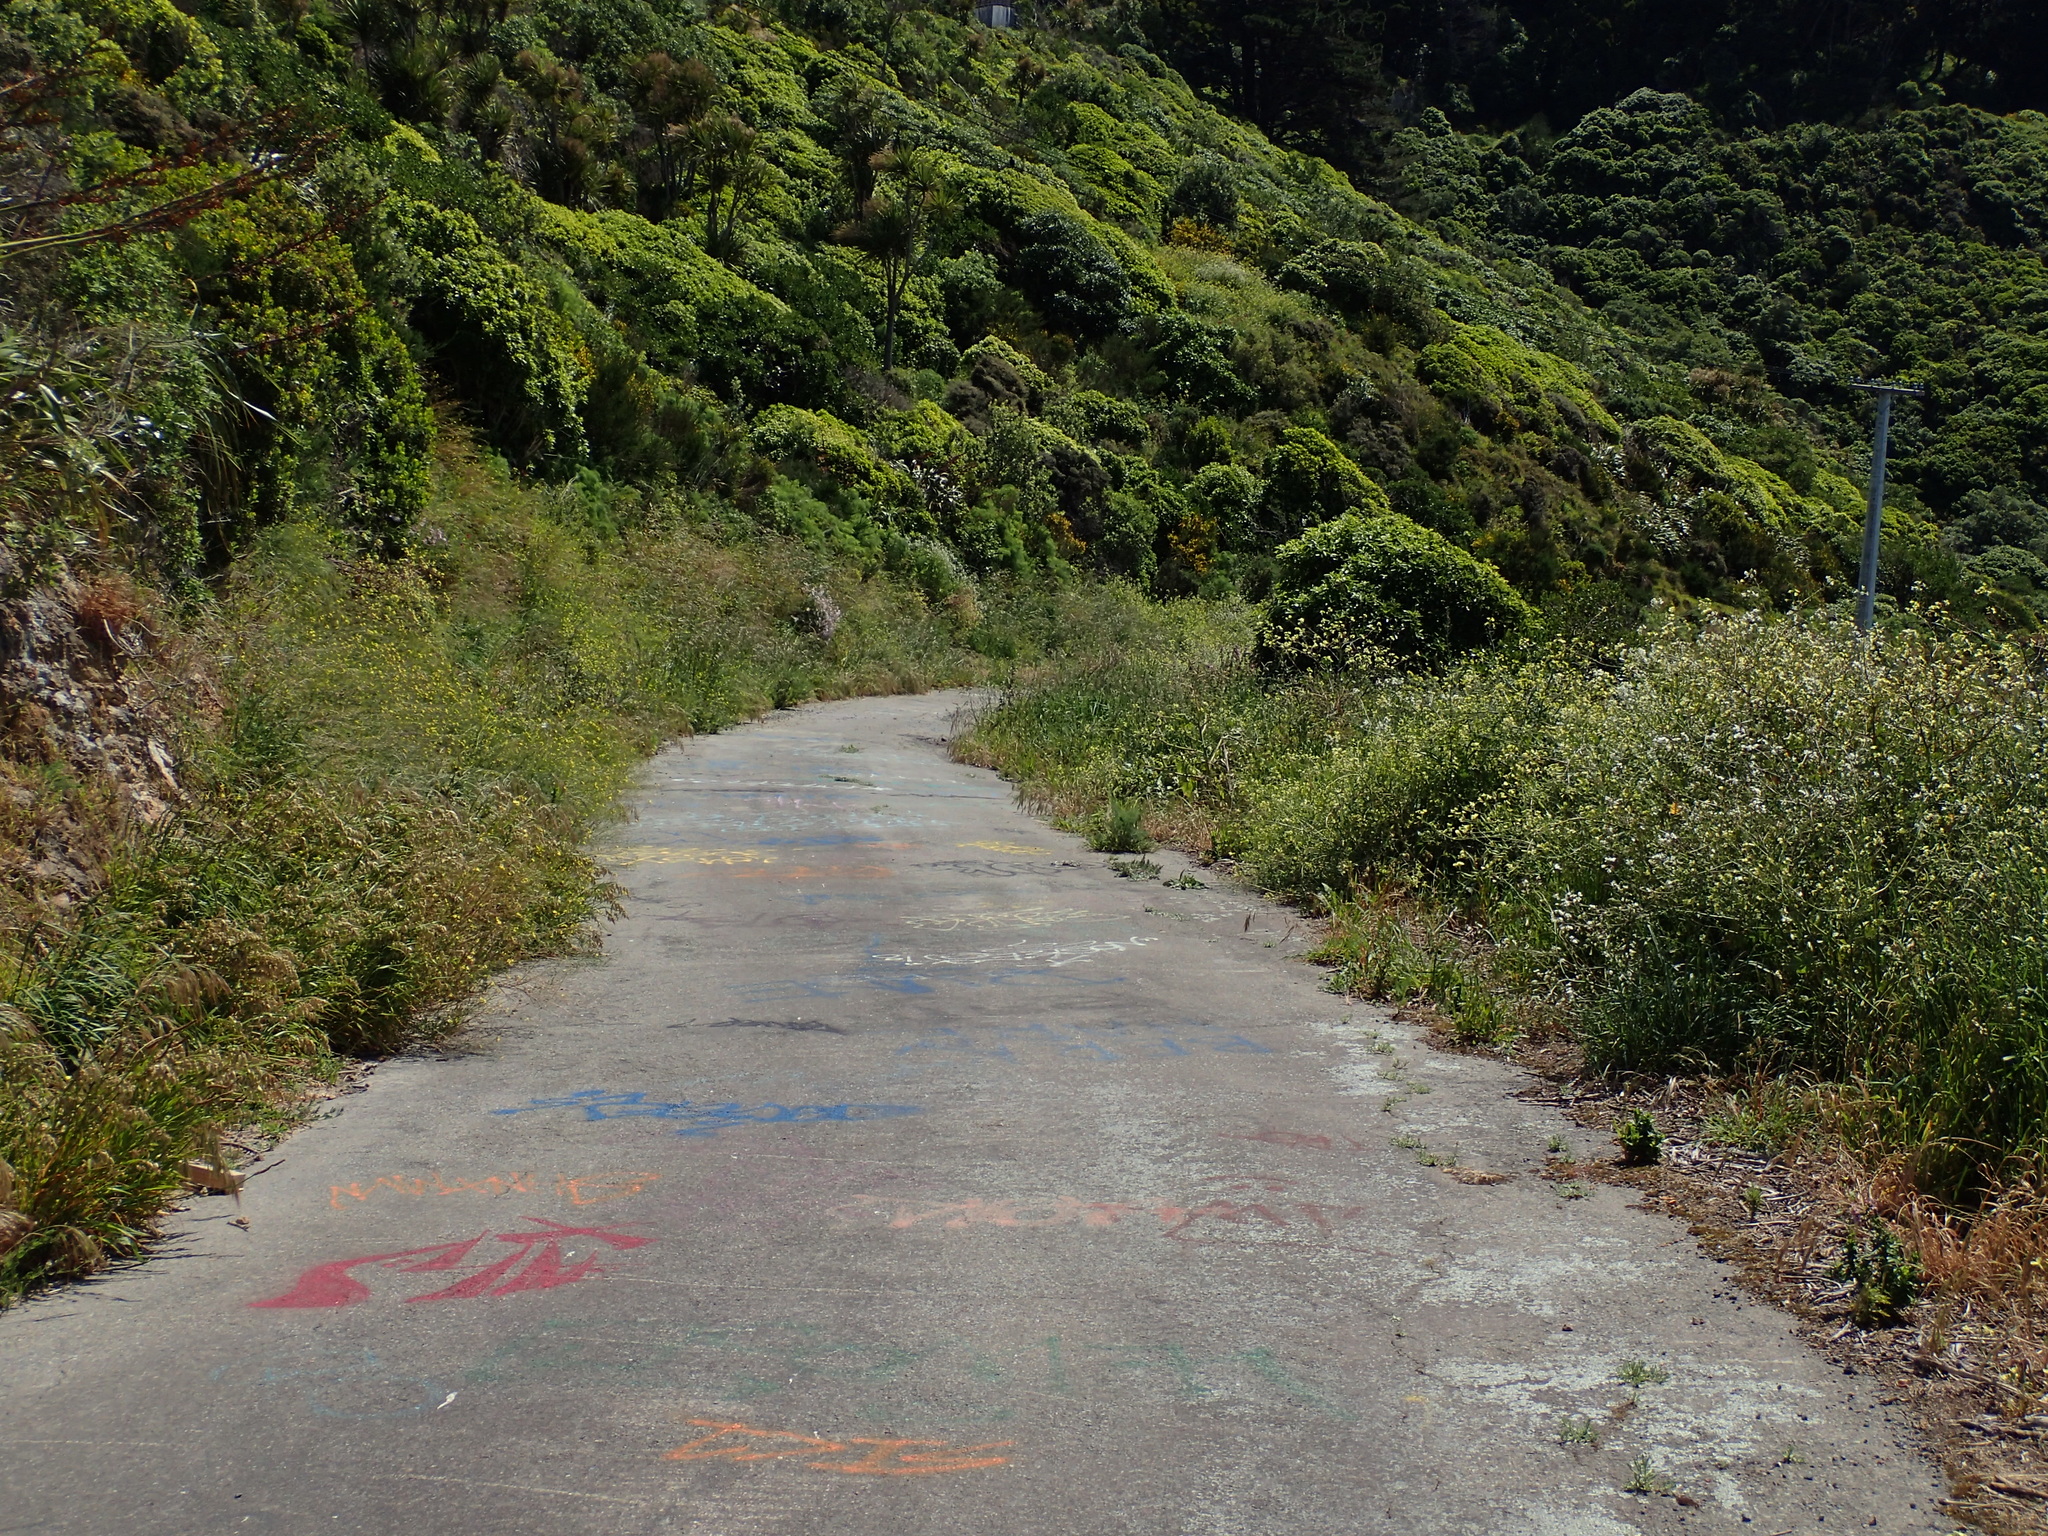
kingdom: Plantae
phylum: Tracheophyta
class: Magnoliopsida
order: Brassicales
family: Brassicaceae
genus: Raphanus
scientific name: Raphanus raphanistrum
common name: Wild radish
